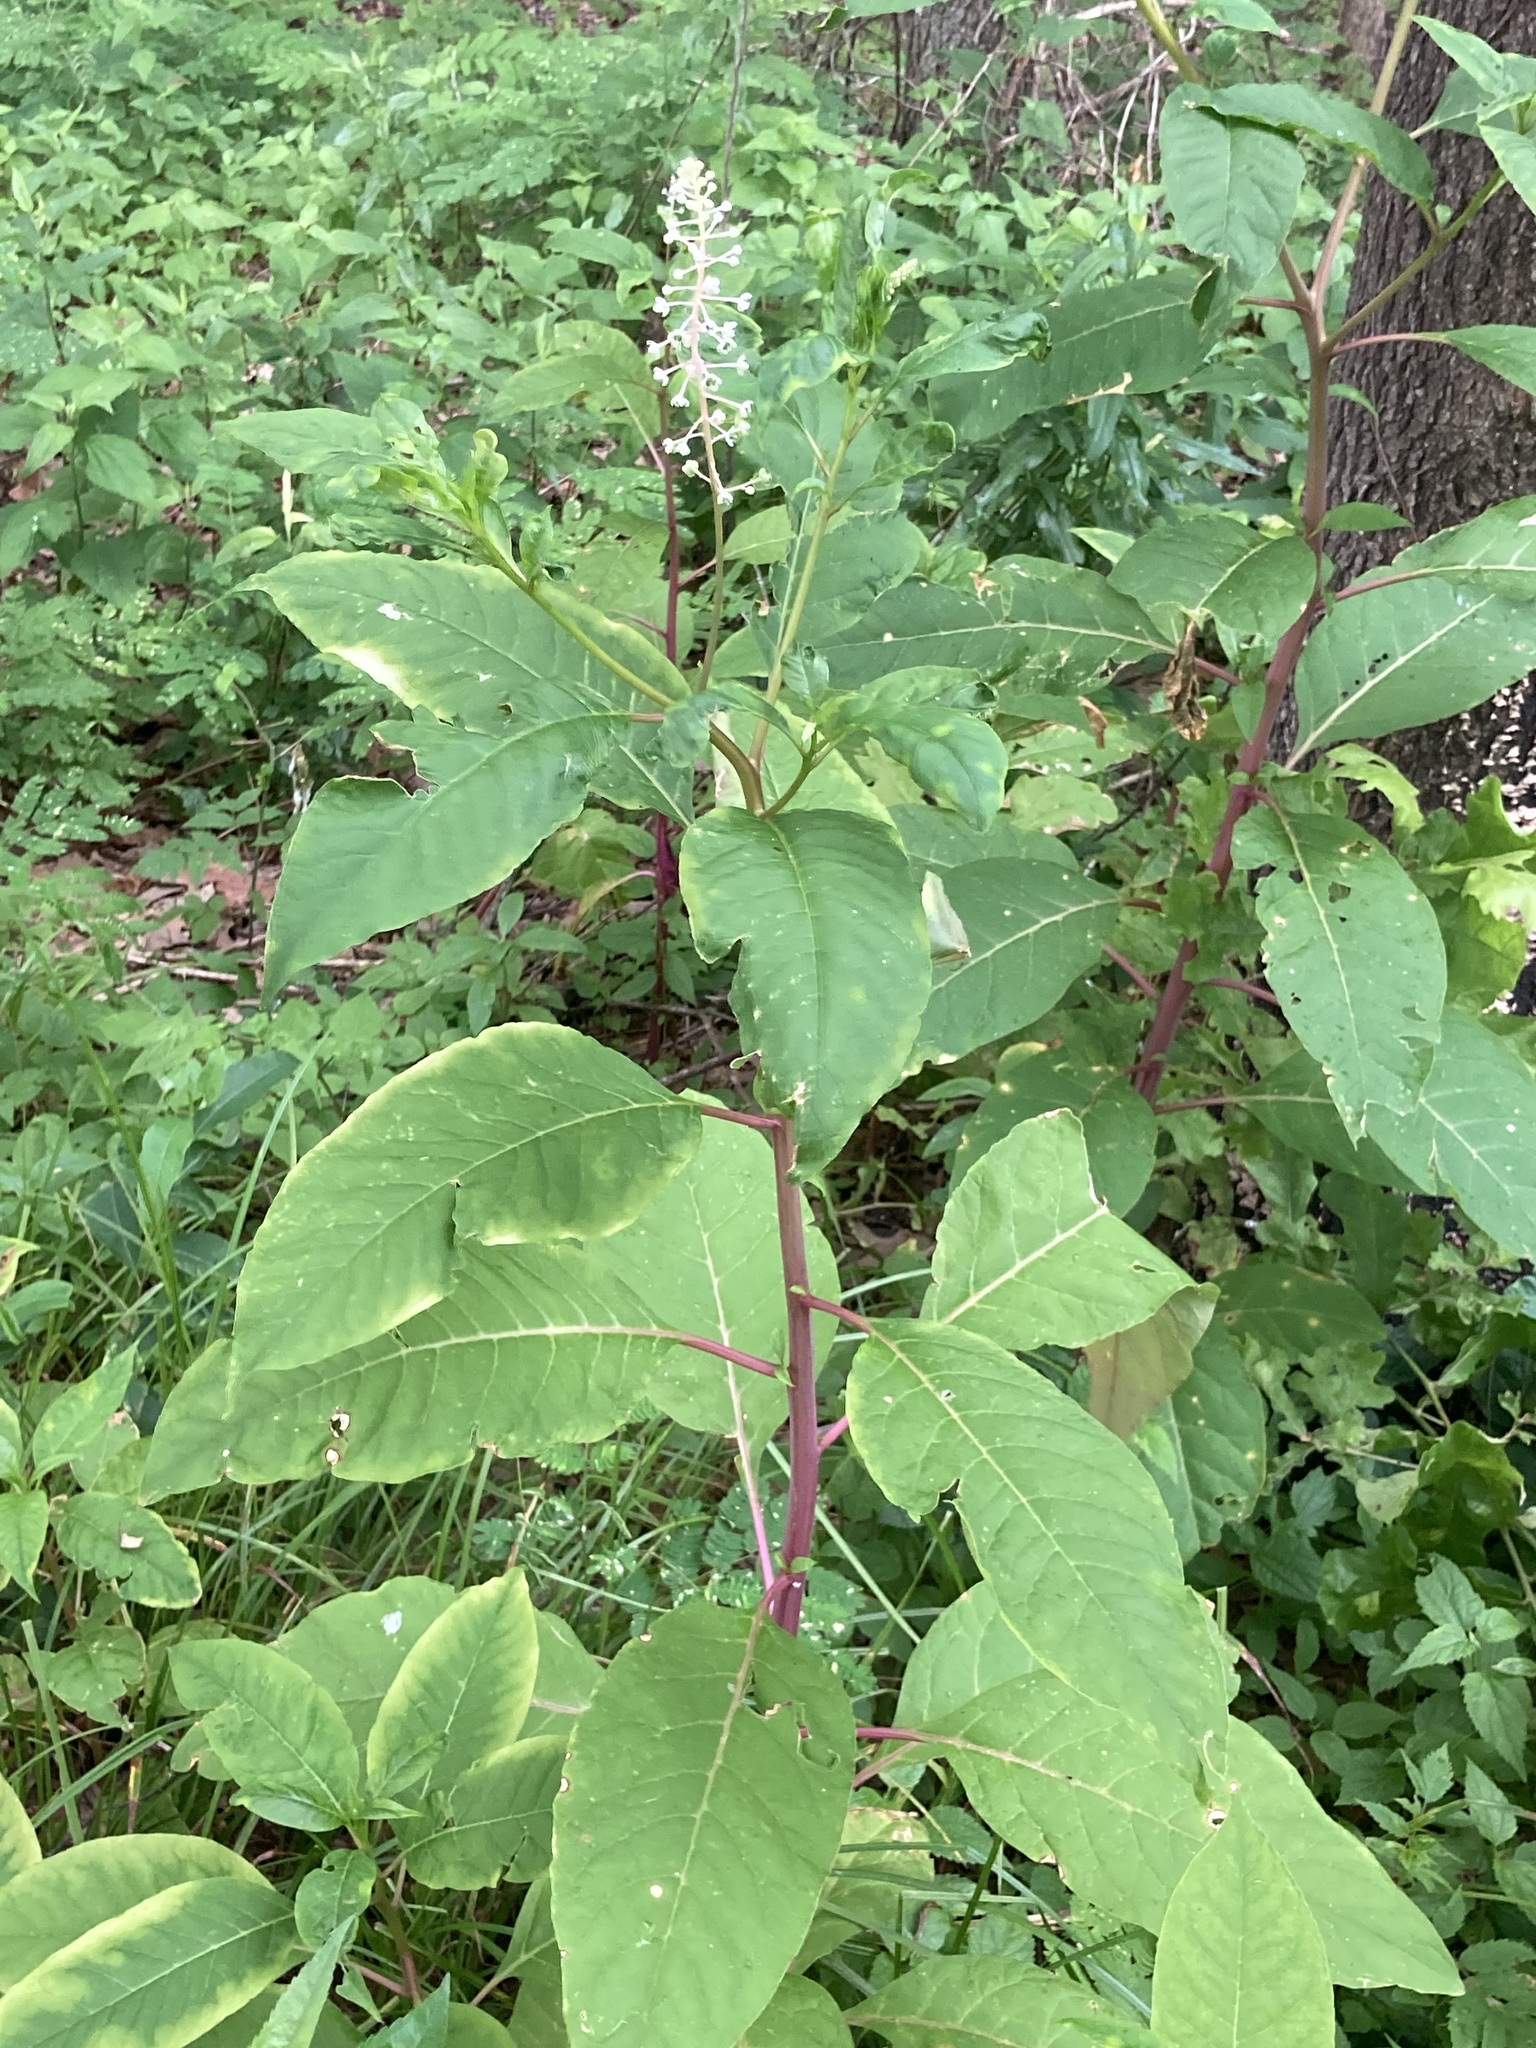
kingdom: Plantae
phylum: Tracheophyta
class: Magnoliopsida
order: Caryophyllales
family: Phytolaccaceae
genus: Phytolacca
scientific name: Phytolacca americana
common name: American pokeweed
